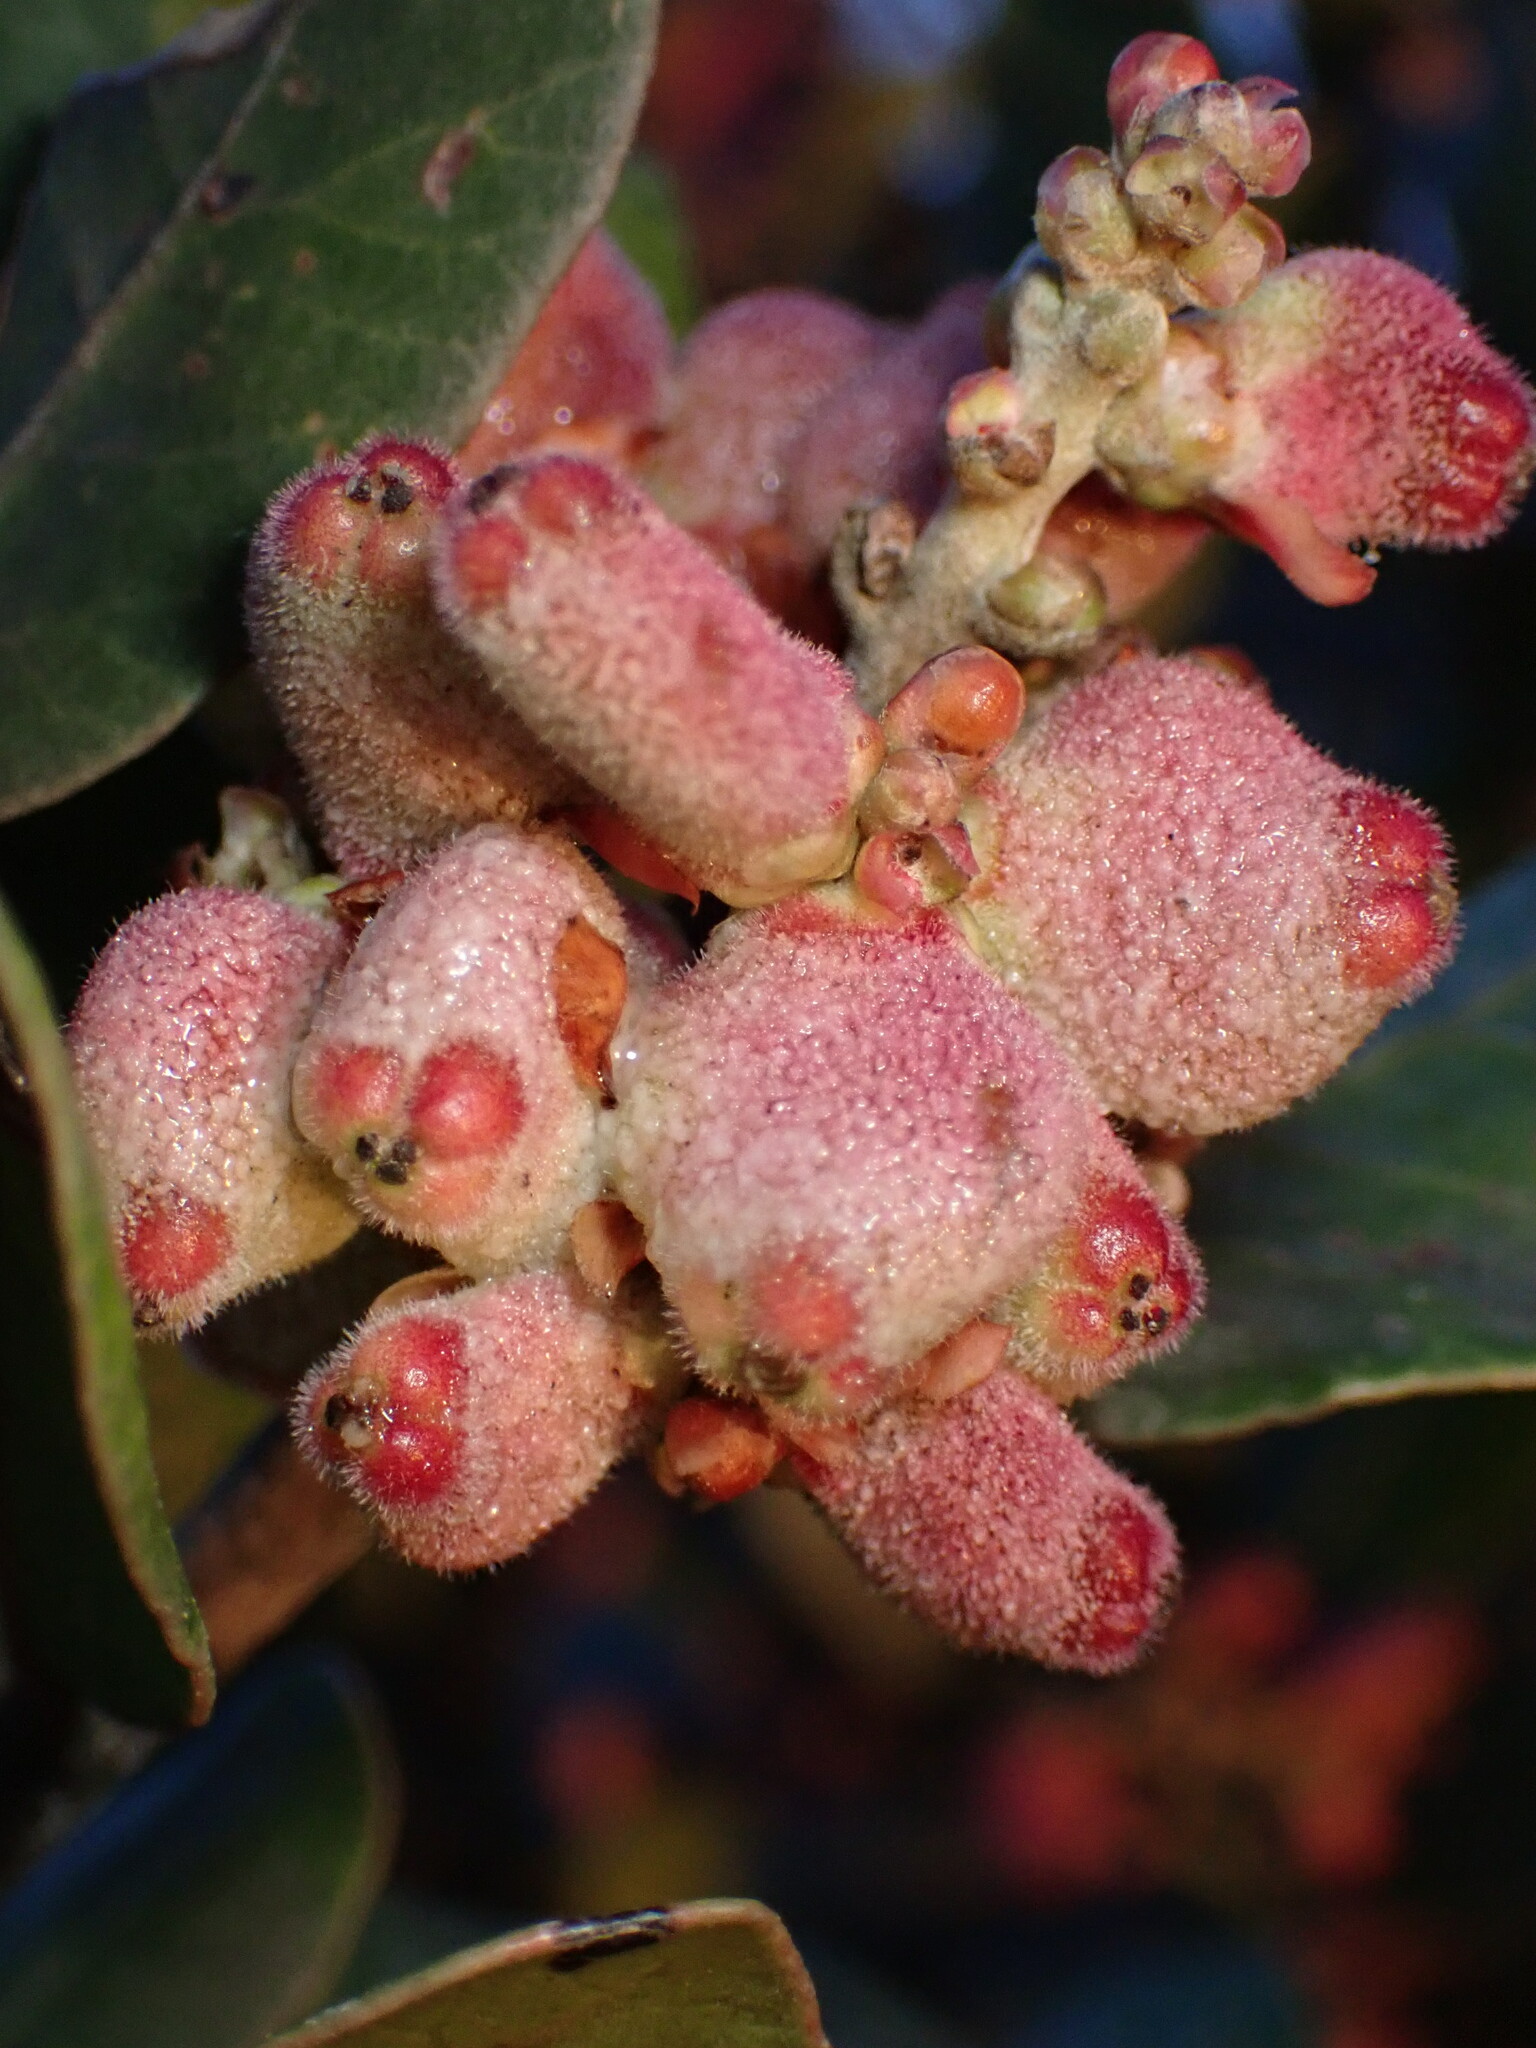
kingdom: Plantae
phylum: Tracheophyta
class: Magnoliopsida
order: Sapindales
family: Anacardiaceae
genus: Rhus
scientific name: Rhus integrifolia
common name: Lemonade sumac
